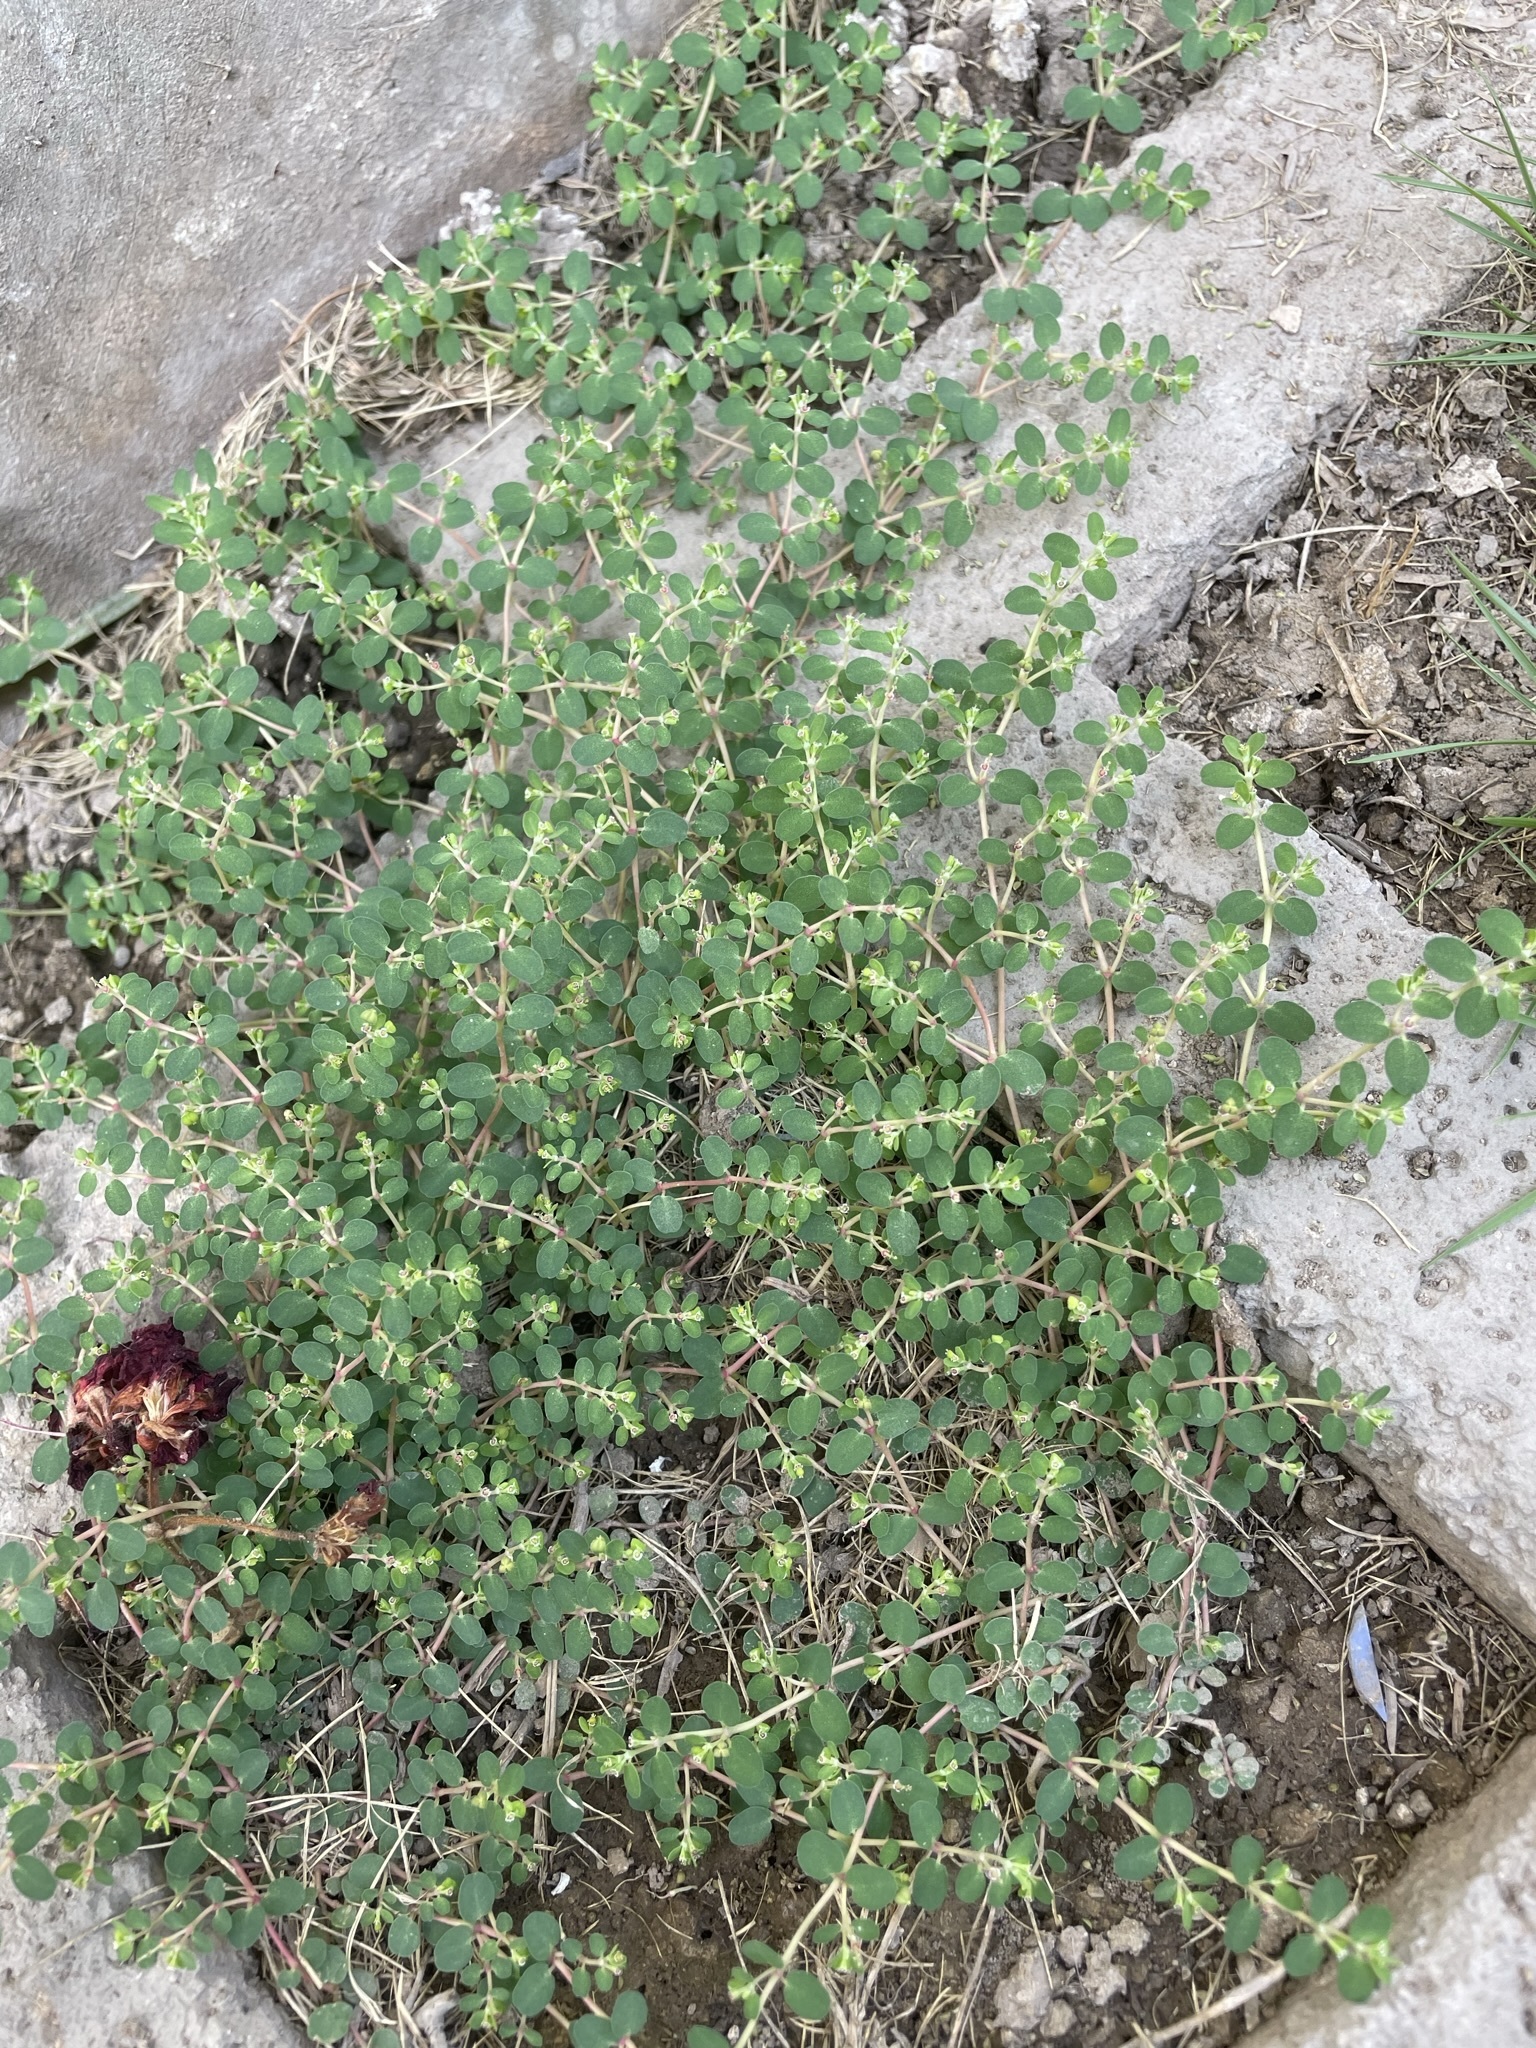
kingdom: Plantae
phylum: Tracheophyta
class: Magnoliopsida
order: Malpighiales
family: Euphorbiaceae
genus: Euphorbia
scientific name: Euphorbia serpens
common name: Matted sandmat
